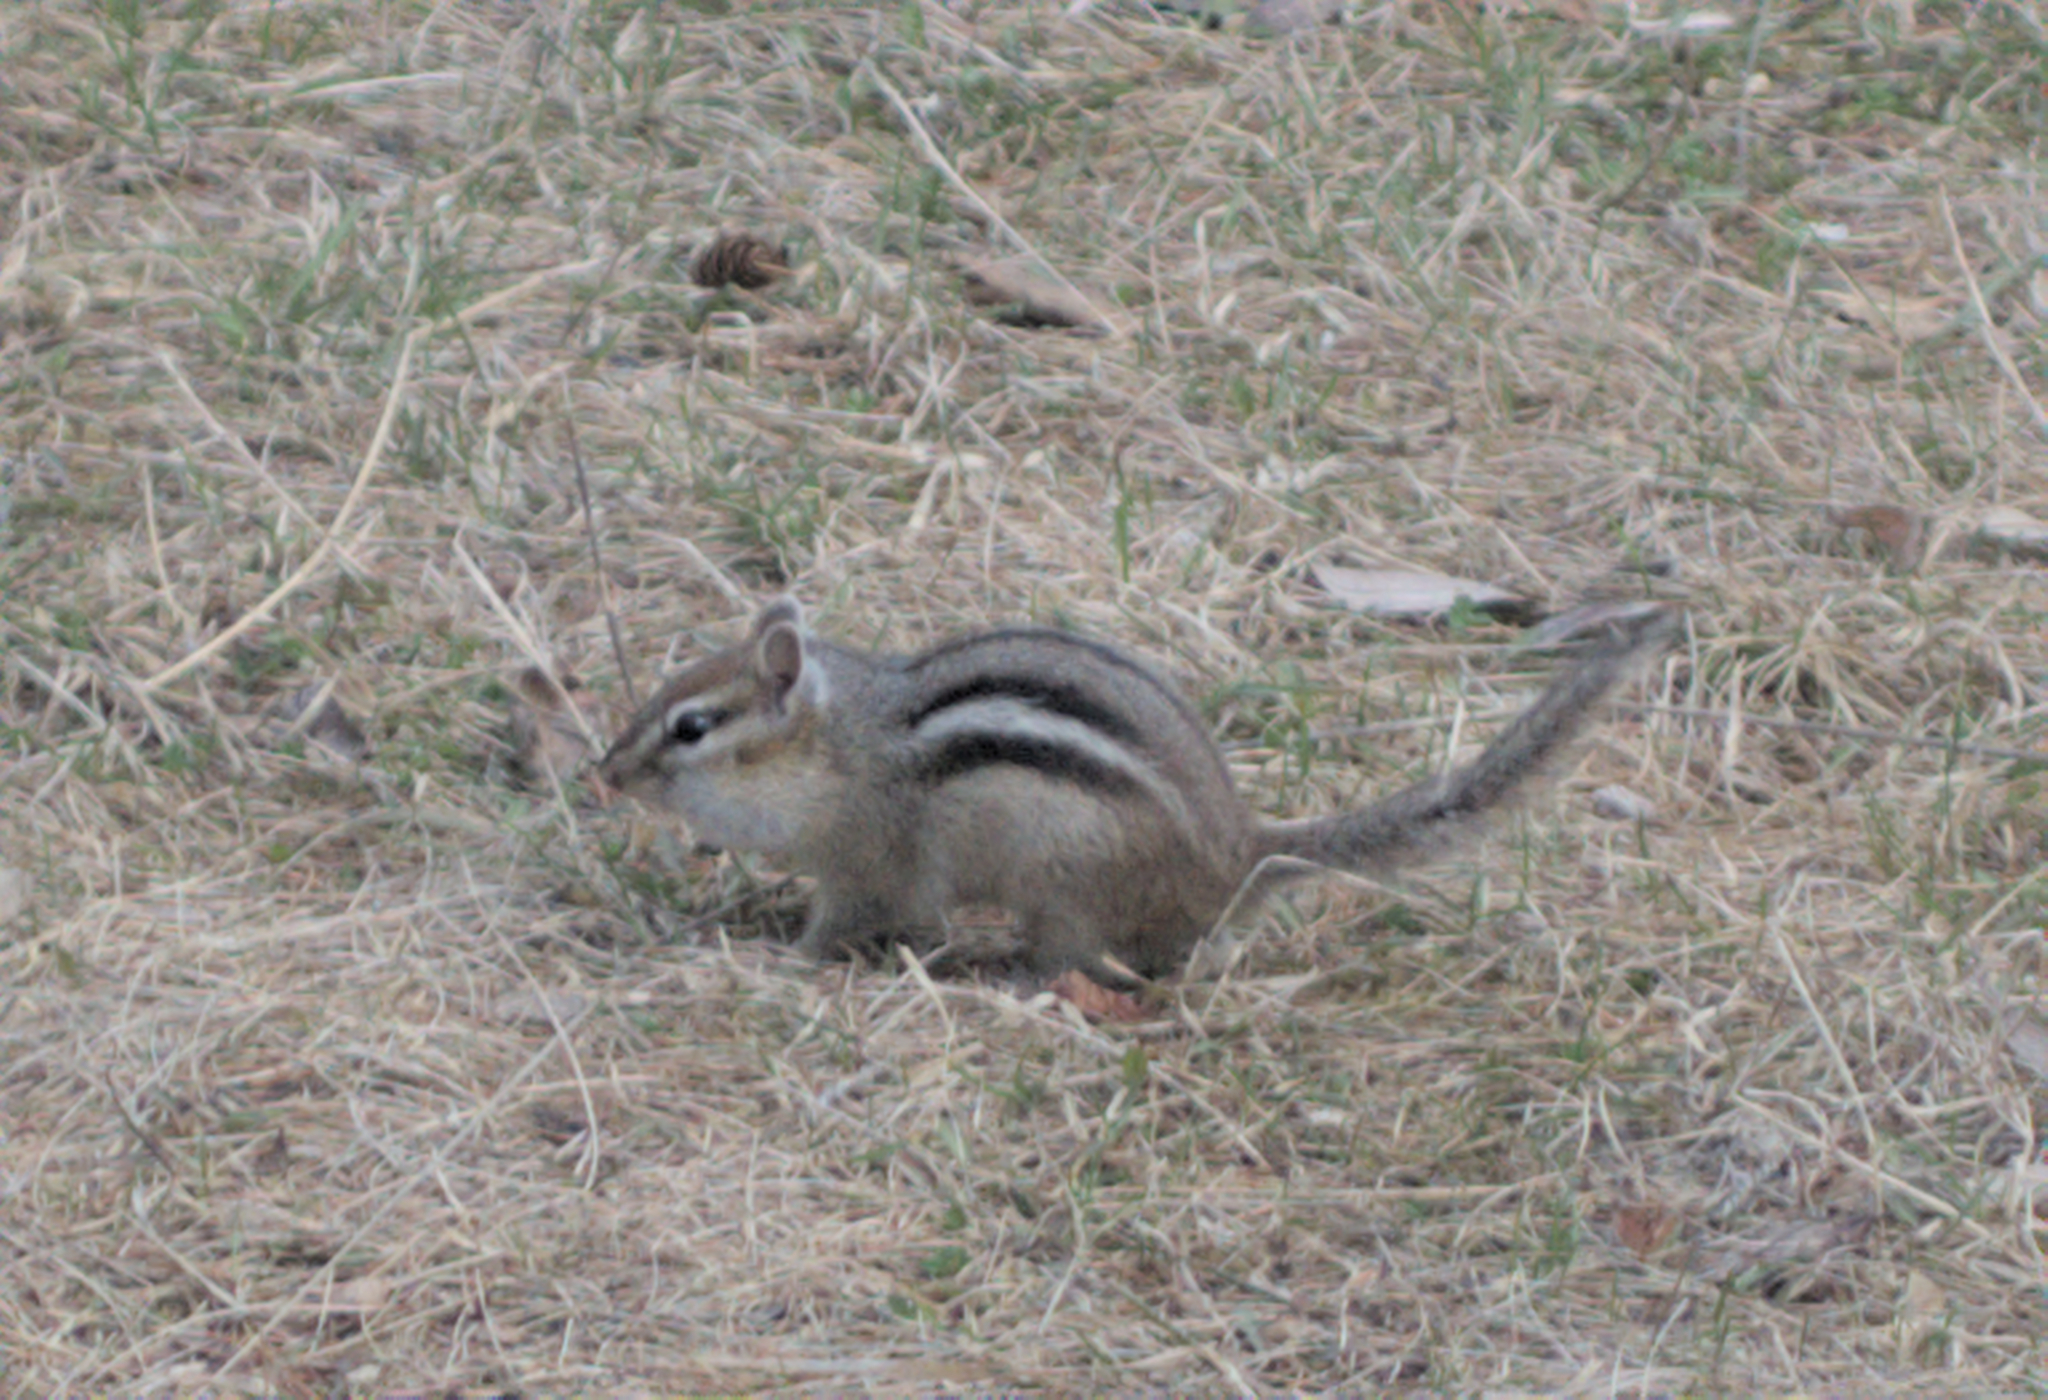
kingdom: Animalia
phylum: Chordata
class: Mammalia
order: Rodentia
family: Sciuridae
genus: Tamias
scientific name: Tamias striatus
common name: Eastern chipmunk
